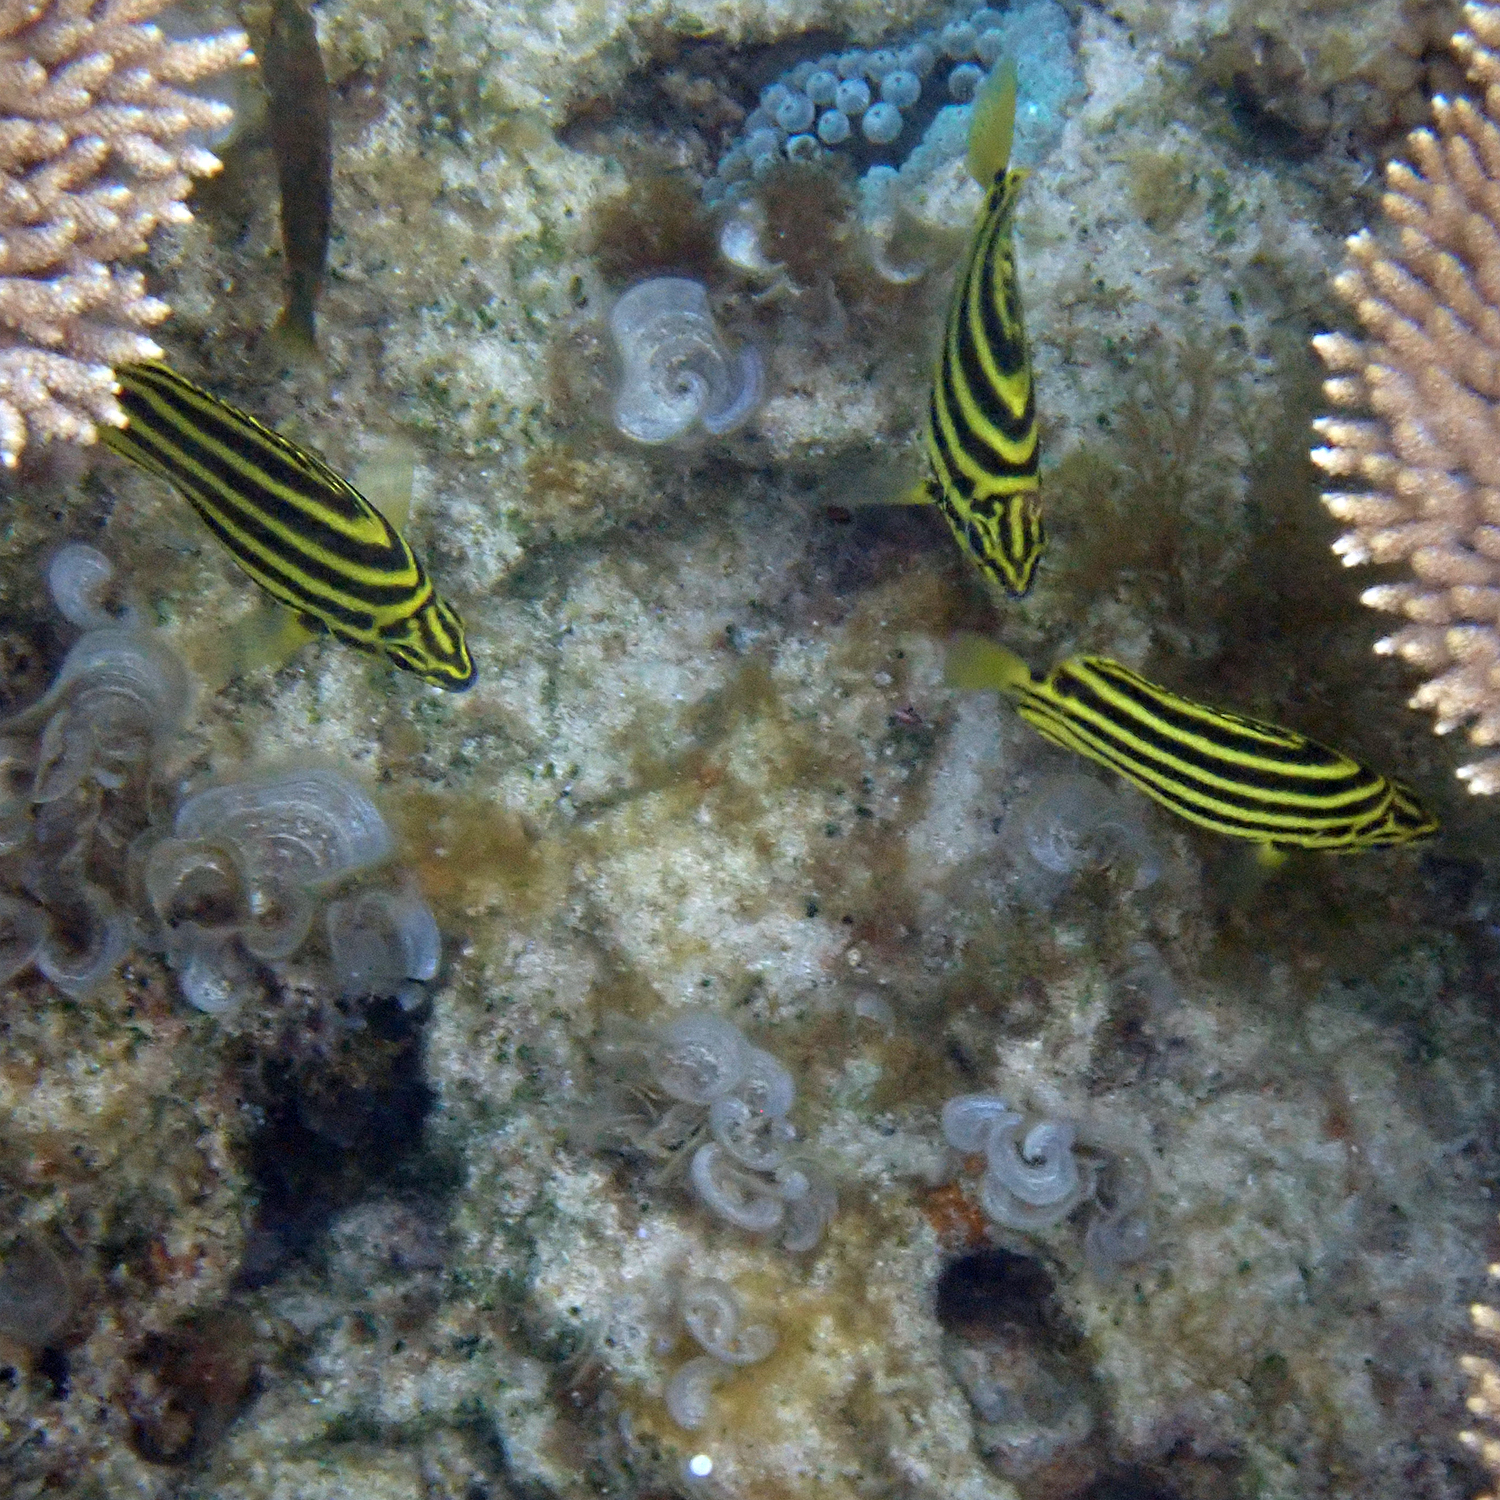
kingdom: Animalia
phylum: Chordata
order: Perciformes
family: Kyphosidae
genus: Microcanthus
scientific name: Microcanthus joyceae
